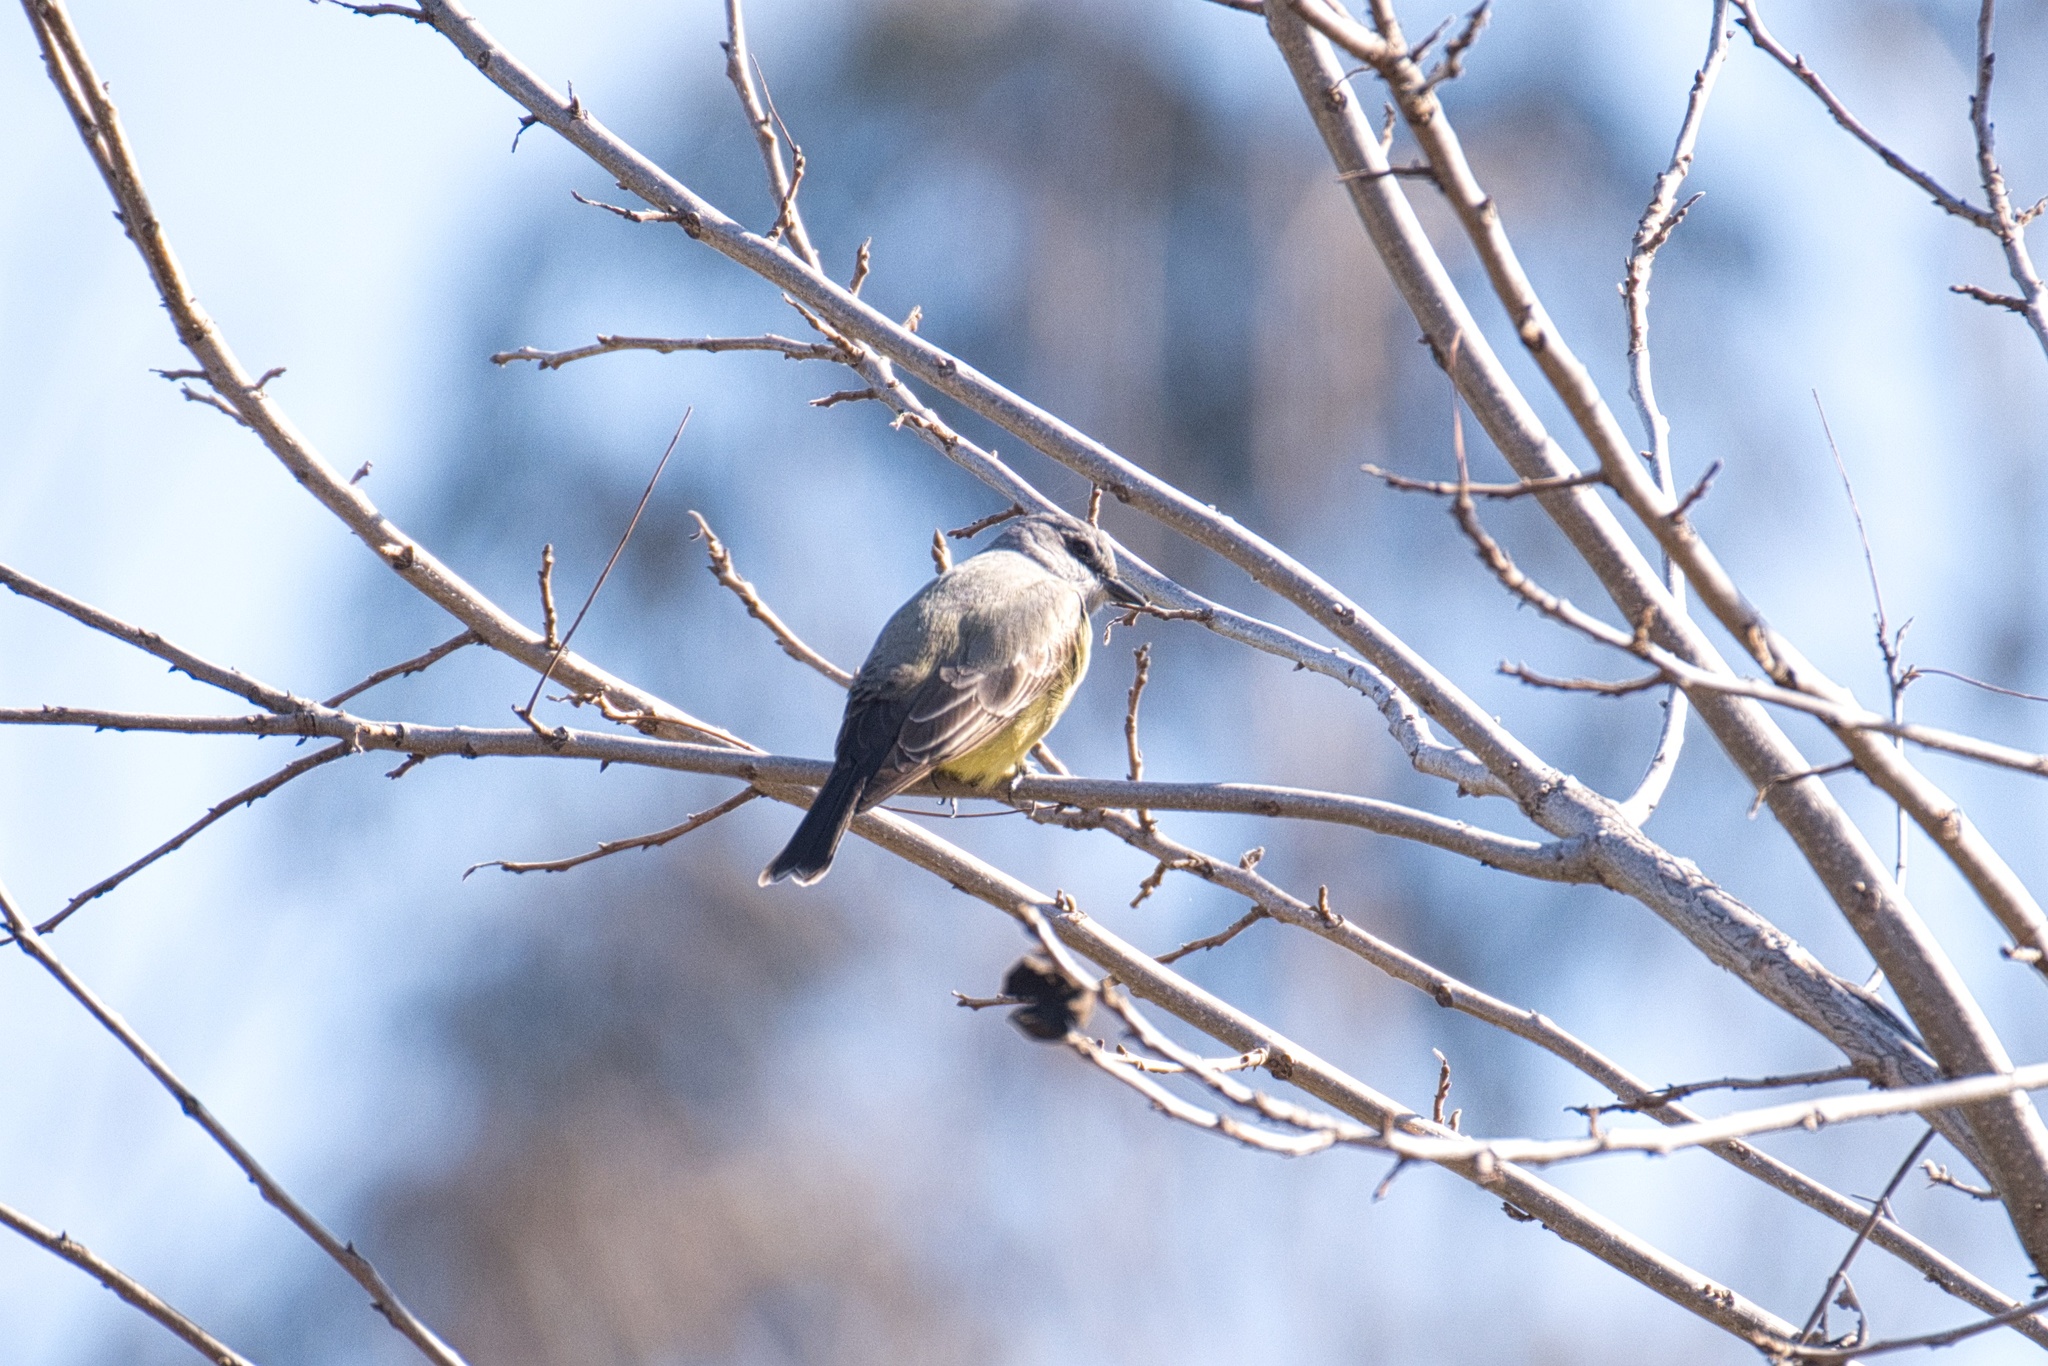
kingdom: Animalia
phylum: Chordata
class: Aves
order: Passeriformes
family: Tyrannidae
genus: Tyrannus
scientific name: Tyrannus vociferans
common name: Cassin's kingbird
